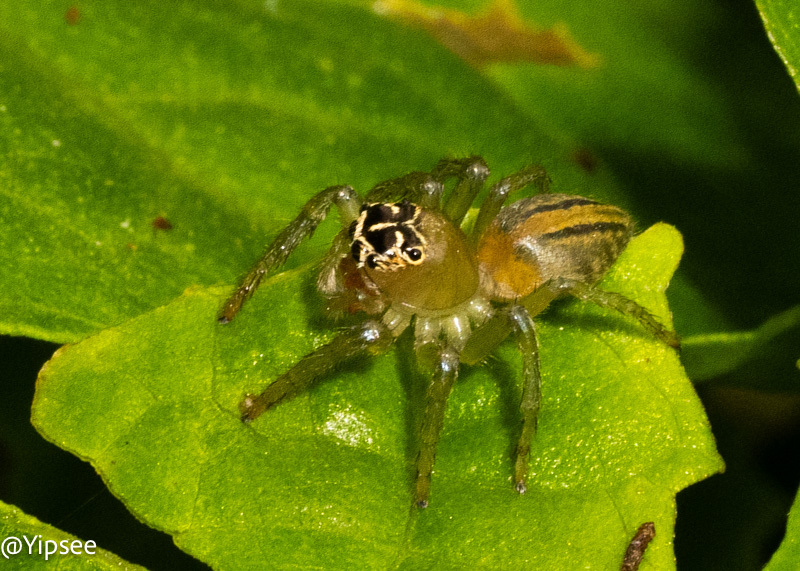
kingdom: Animalia
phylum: Arthropoda
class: Arachnida
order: Araneae
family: Salticidae
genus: Colyttus
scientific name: Colyttus bilineatus
